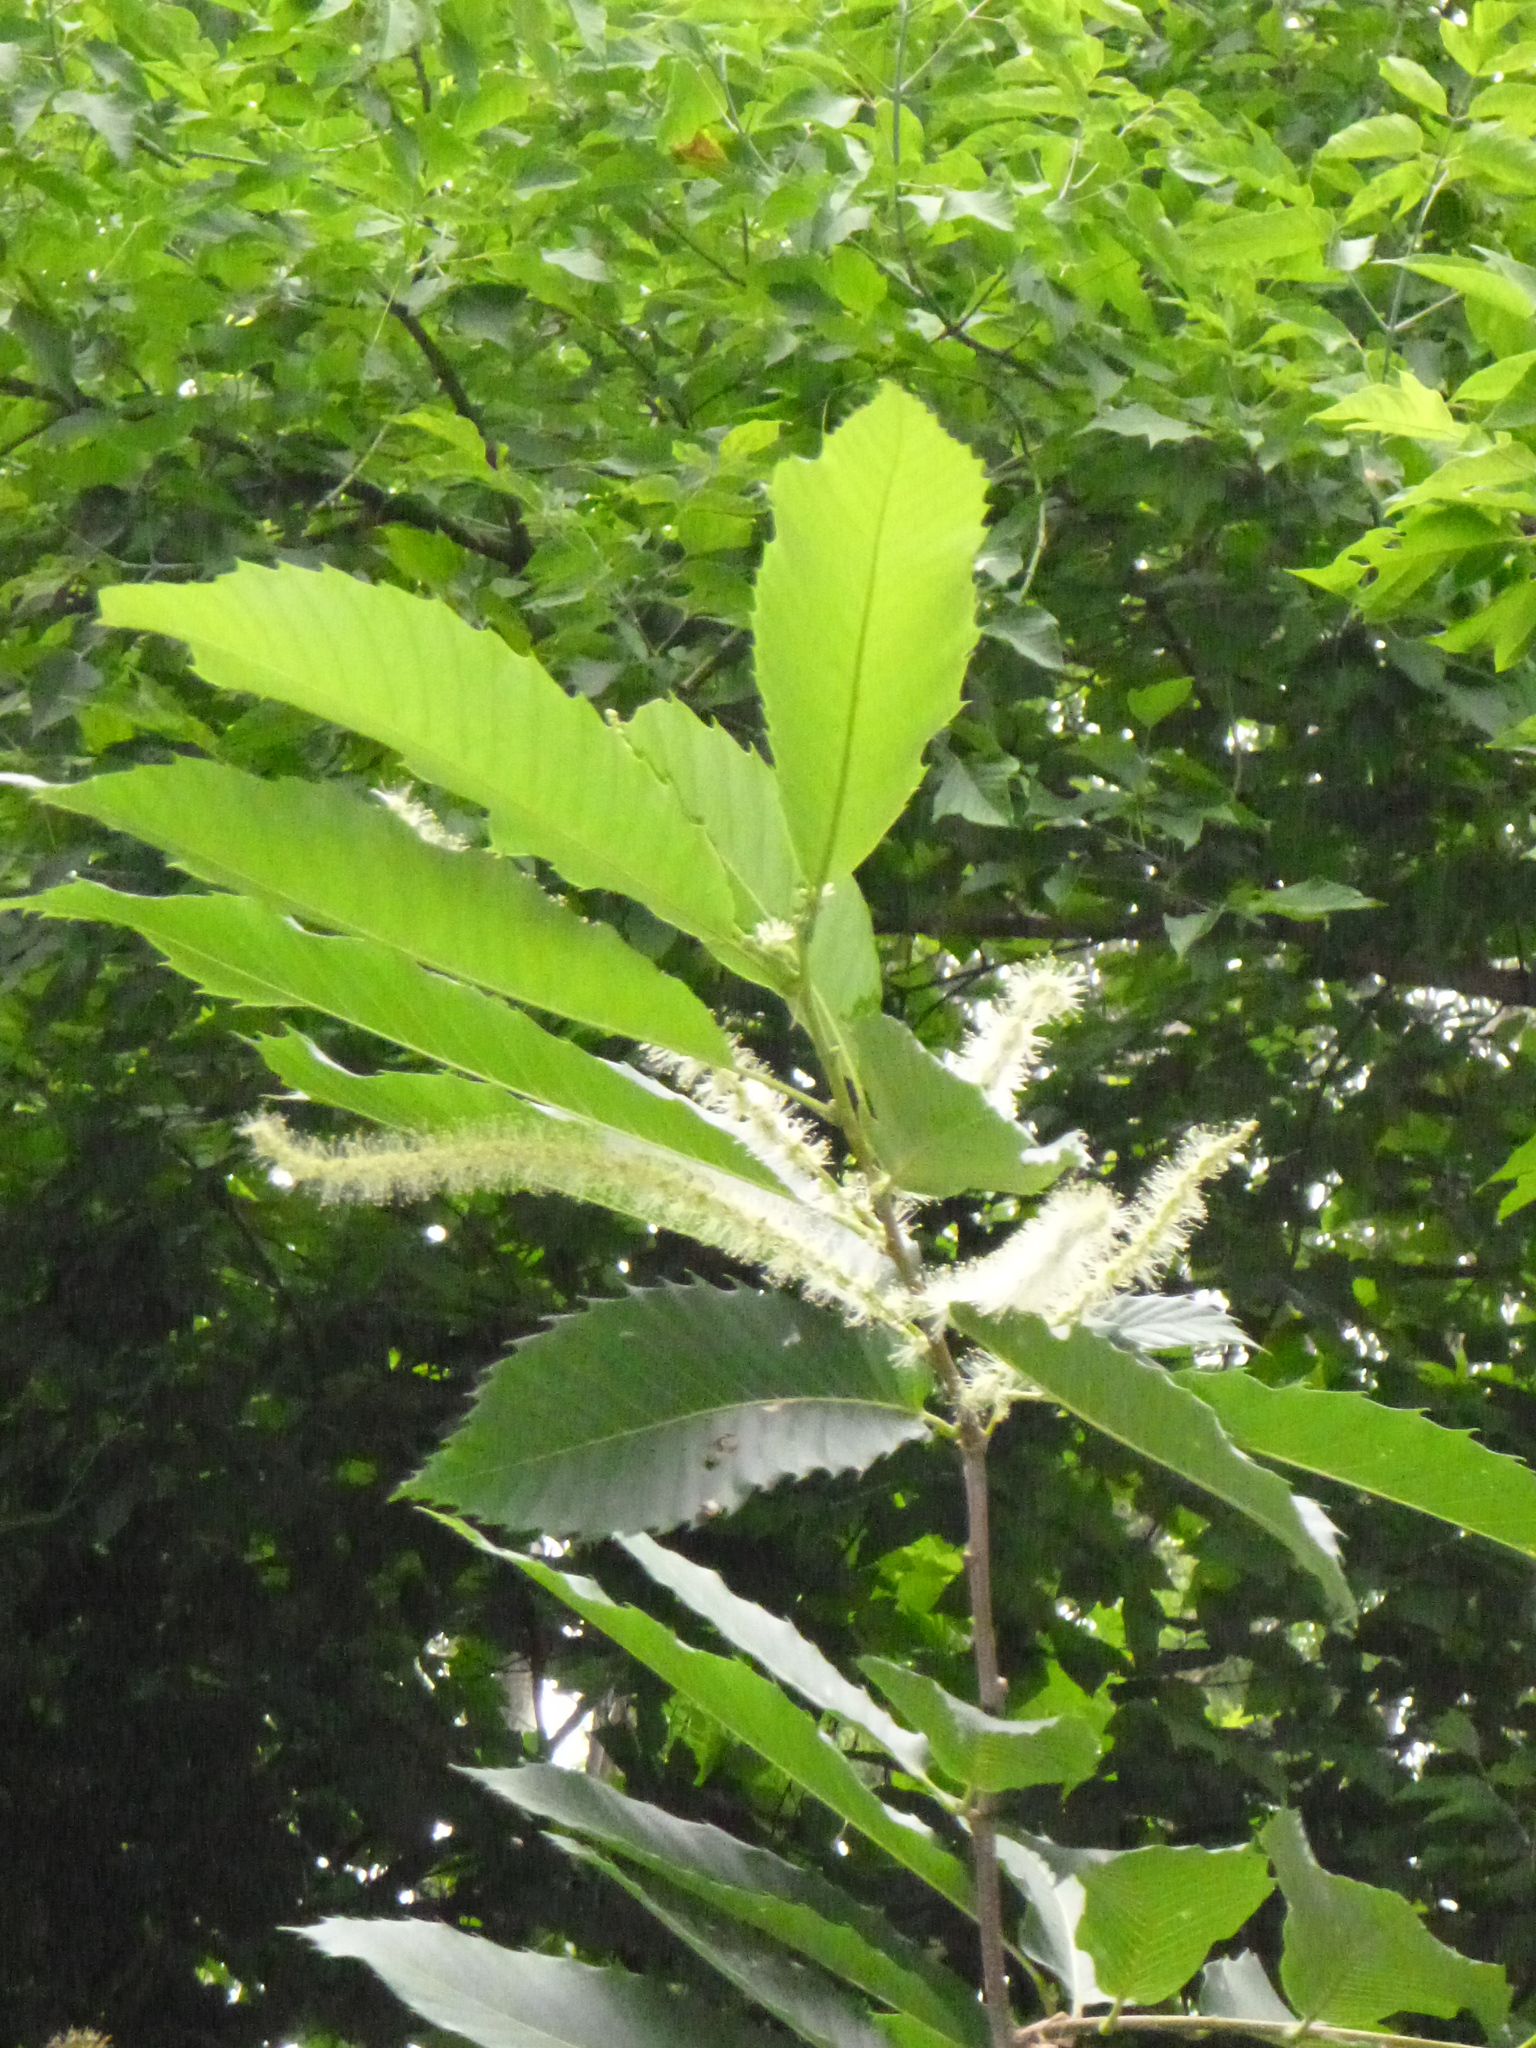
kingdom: Plantae
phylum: Tracheophyta
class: Magnoliopsida
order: Fagales
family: Fagaceae
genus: Castanea
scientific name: Castanea sativa
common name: Sweet chestnut
